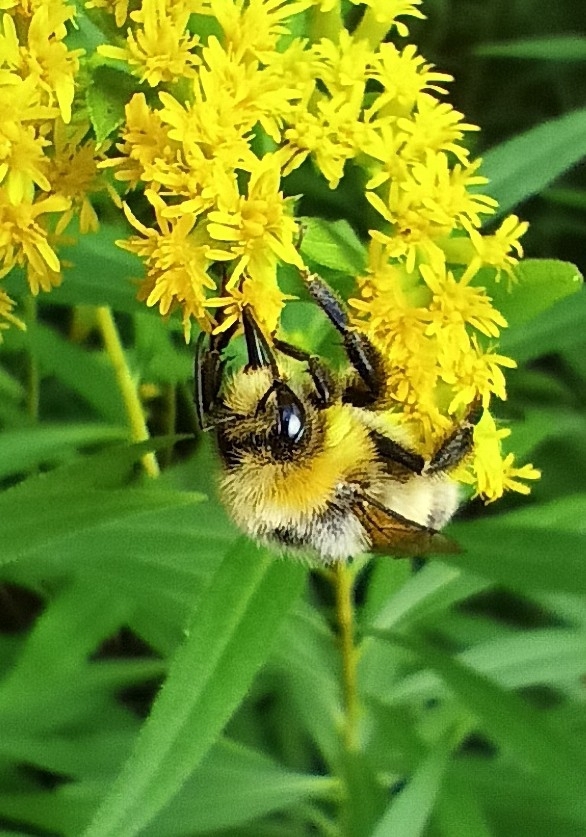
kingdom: Animalia
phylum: Arthropoda
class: Insecta
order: Hymenoptera
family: Apidae
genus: Bombus
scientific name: Bombus lucorum
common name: White-tailed bumblebee
